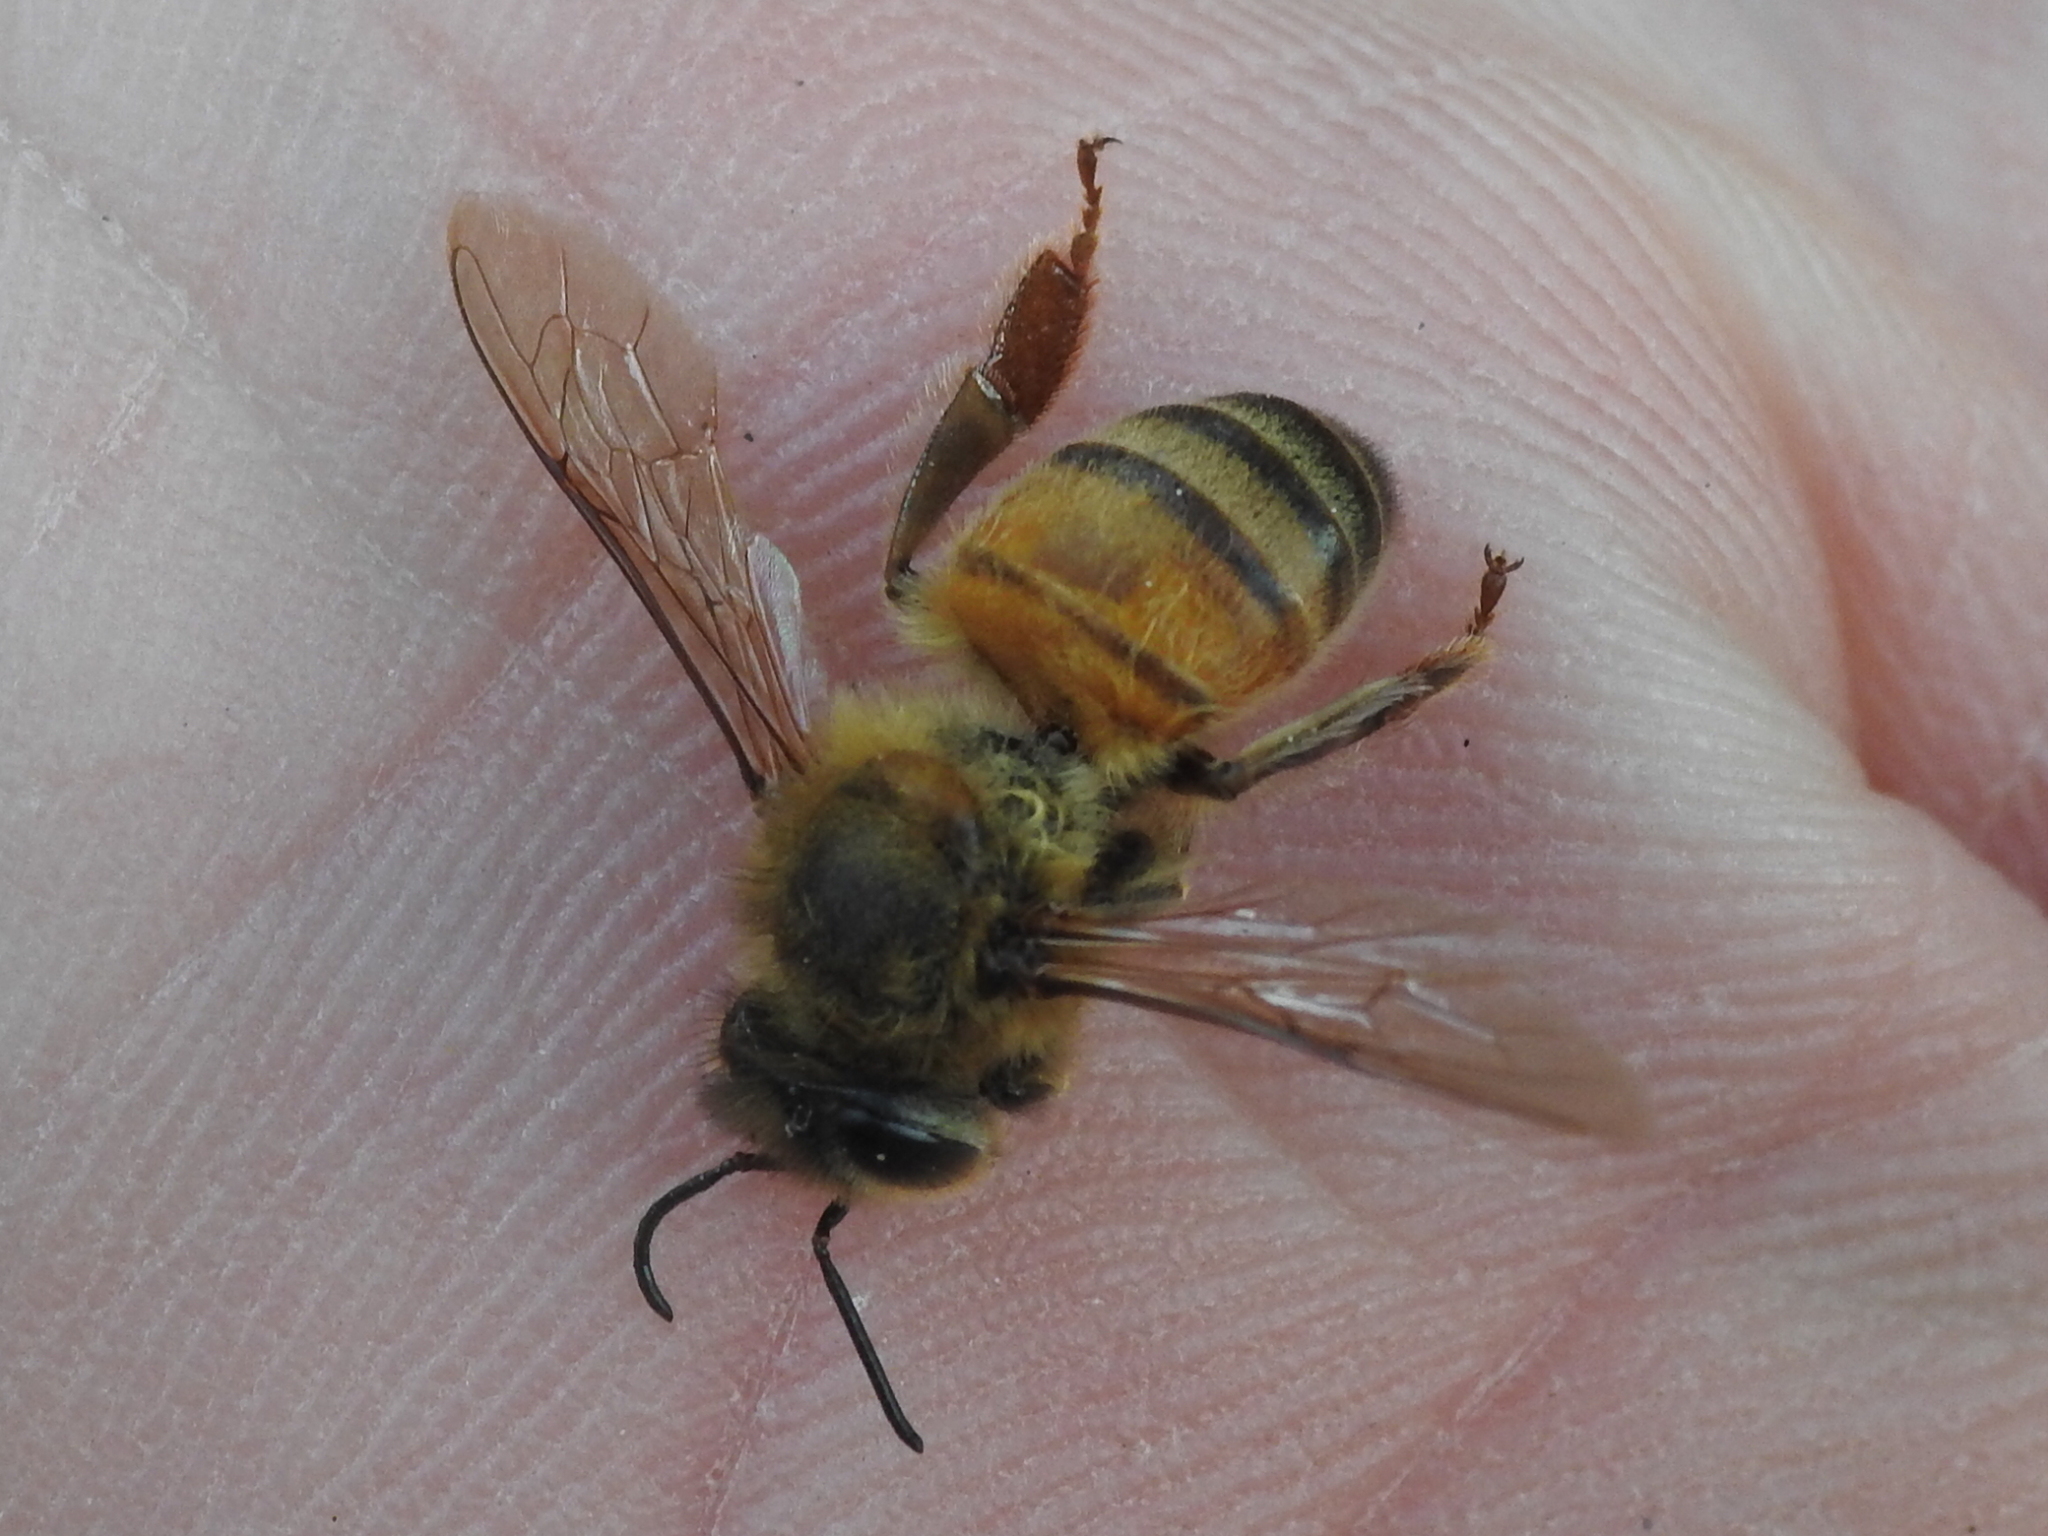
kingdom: Animalia
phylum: Arthropoda
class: Insecta
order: Hymenoptera
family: Apidae
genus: Apis
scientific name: Apis mellifera
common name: Honey bee
